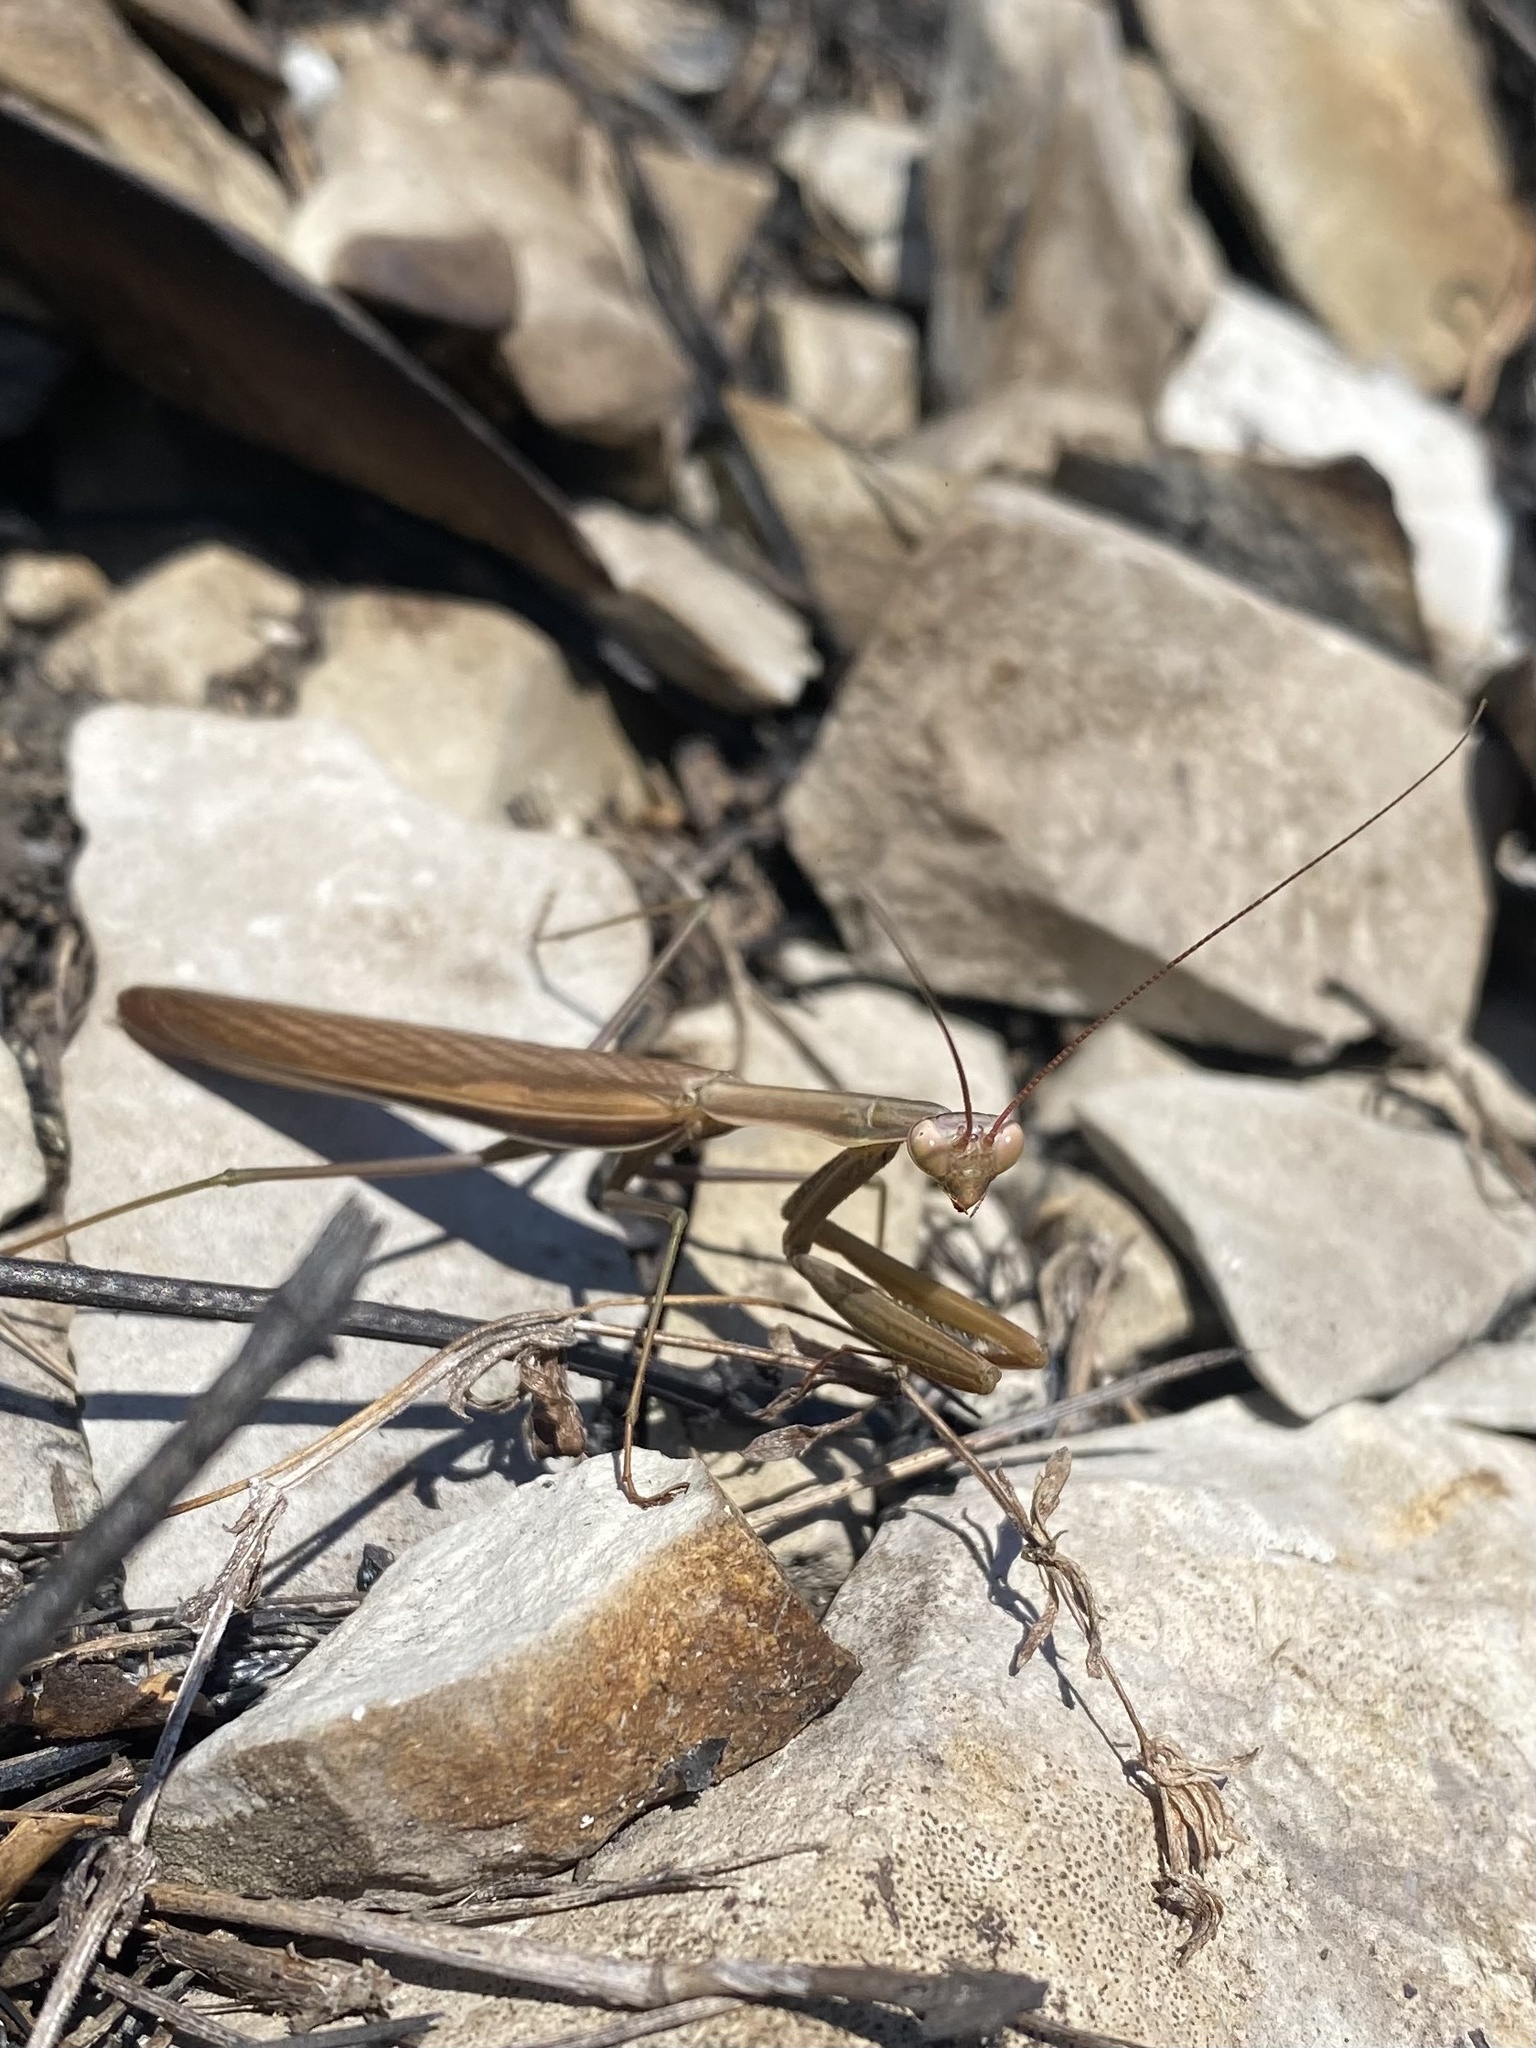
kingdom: Animalia
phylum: Arthropoda
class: Insecta
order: Mantodea
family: Mantidae
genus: Mantis
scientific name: Mantis religiosa
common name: Praying mantis
